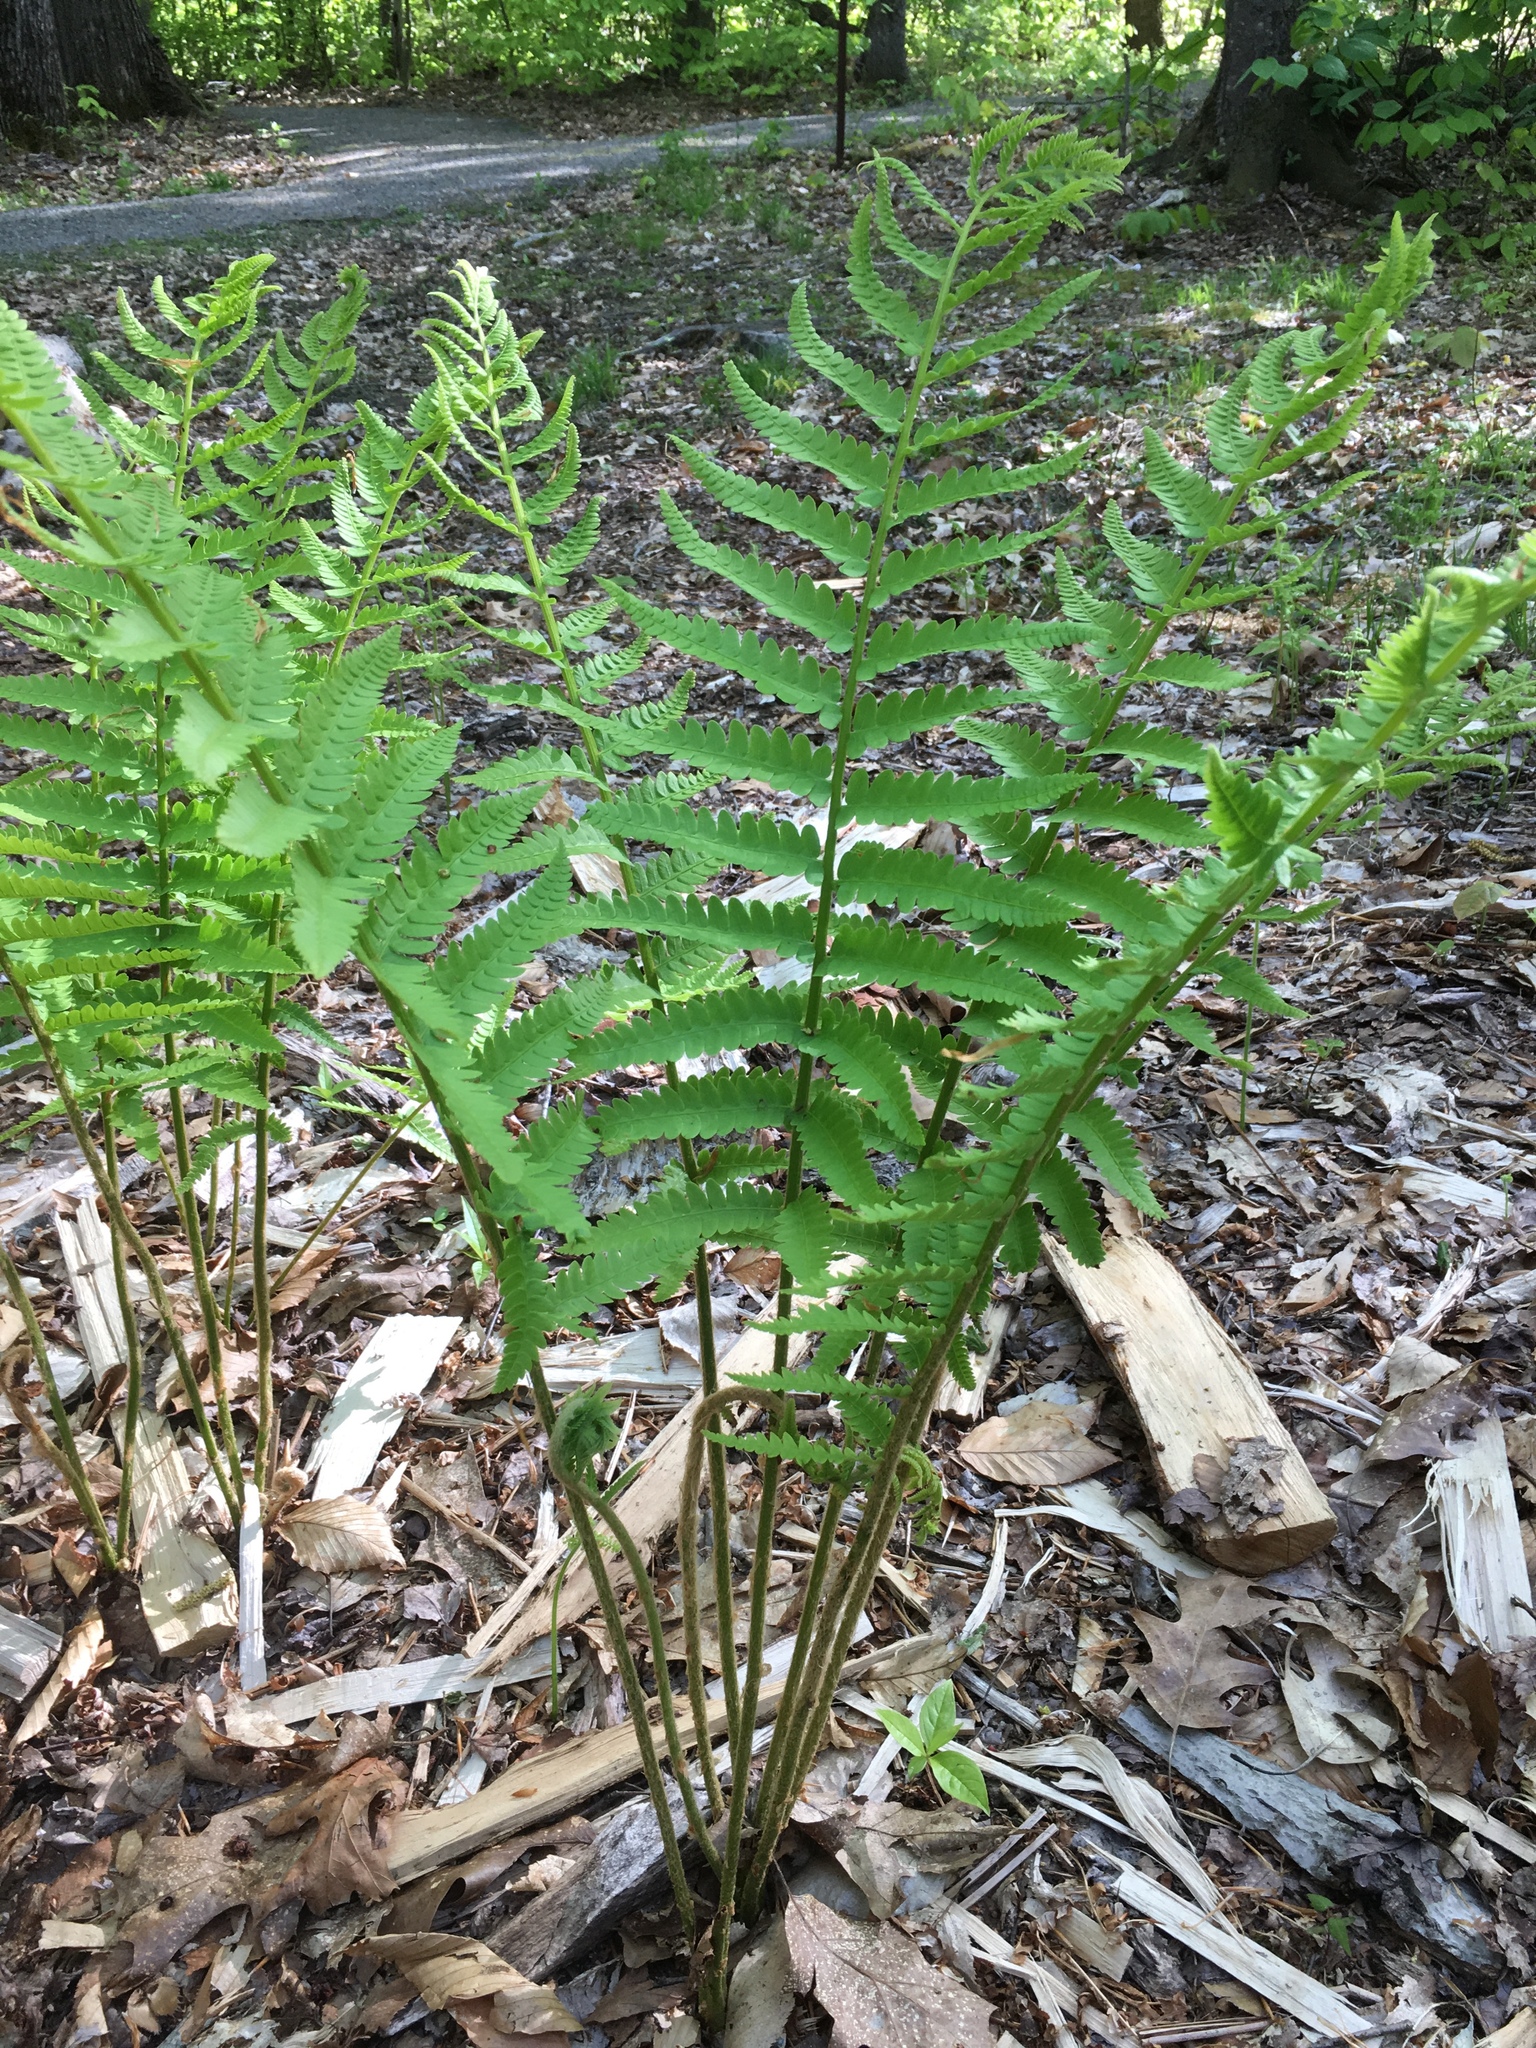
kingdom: Plantae
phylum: Tracheophyta
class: Polypodiopsida
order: Osmundales
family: Osmundaceae
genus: Osmundastrum
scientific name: Osmundastrum cinnamomeum
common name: Cinnamon fern
